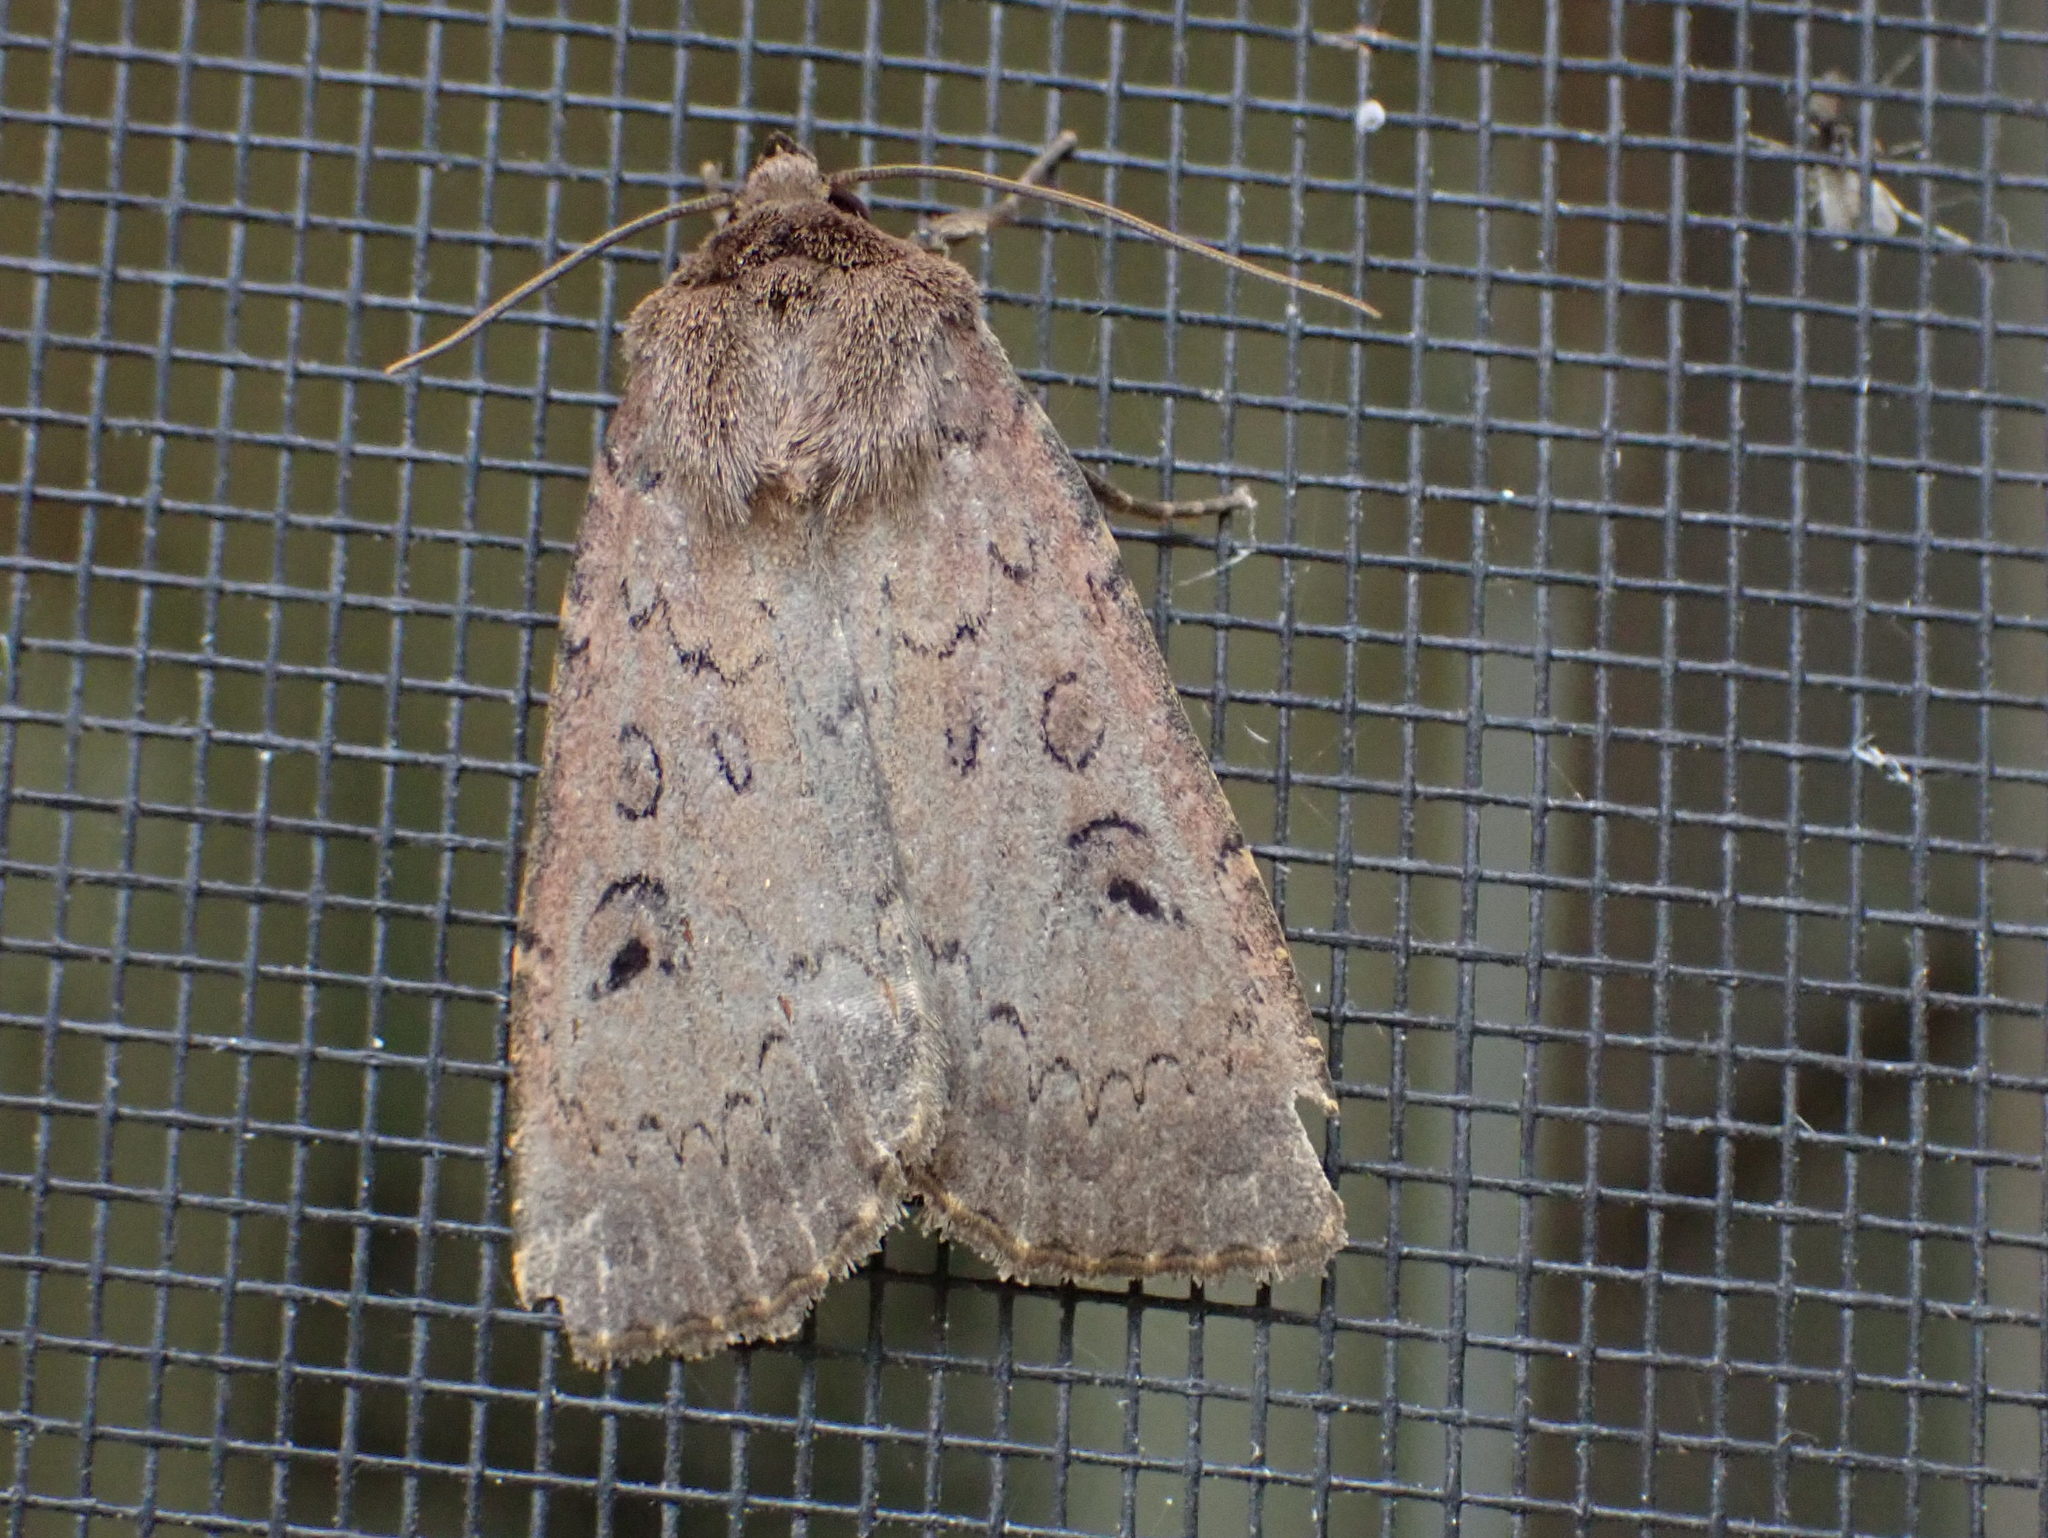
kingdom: Animalia
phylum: Arthropoda
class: Insecta
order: Lepidoptera
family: Noctuidae
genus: Graphiphora
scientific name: Graphiphora augur
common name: Double dart
